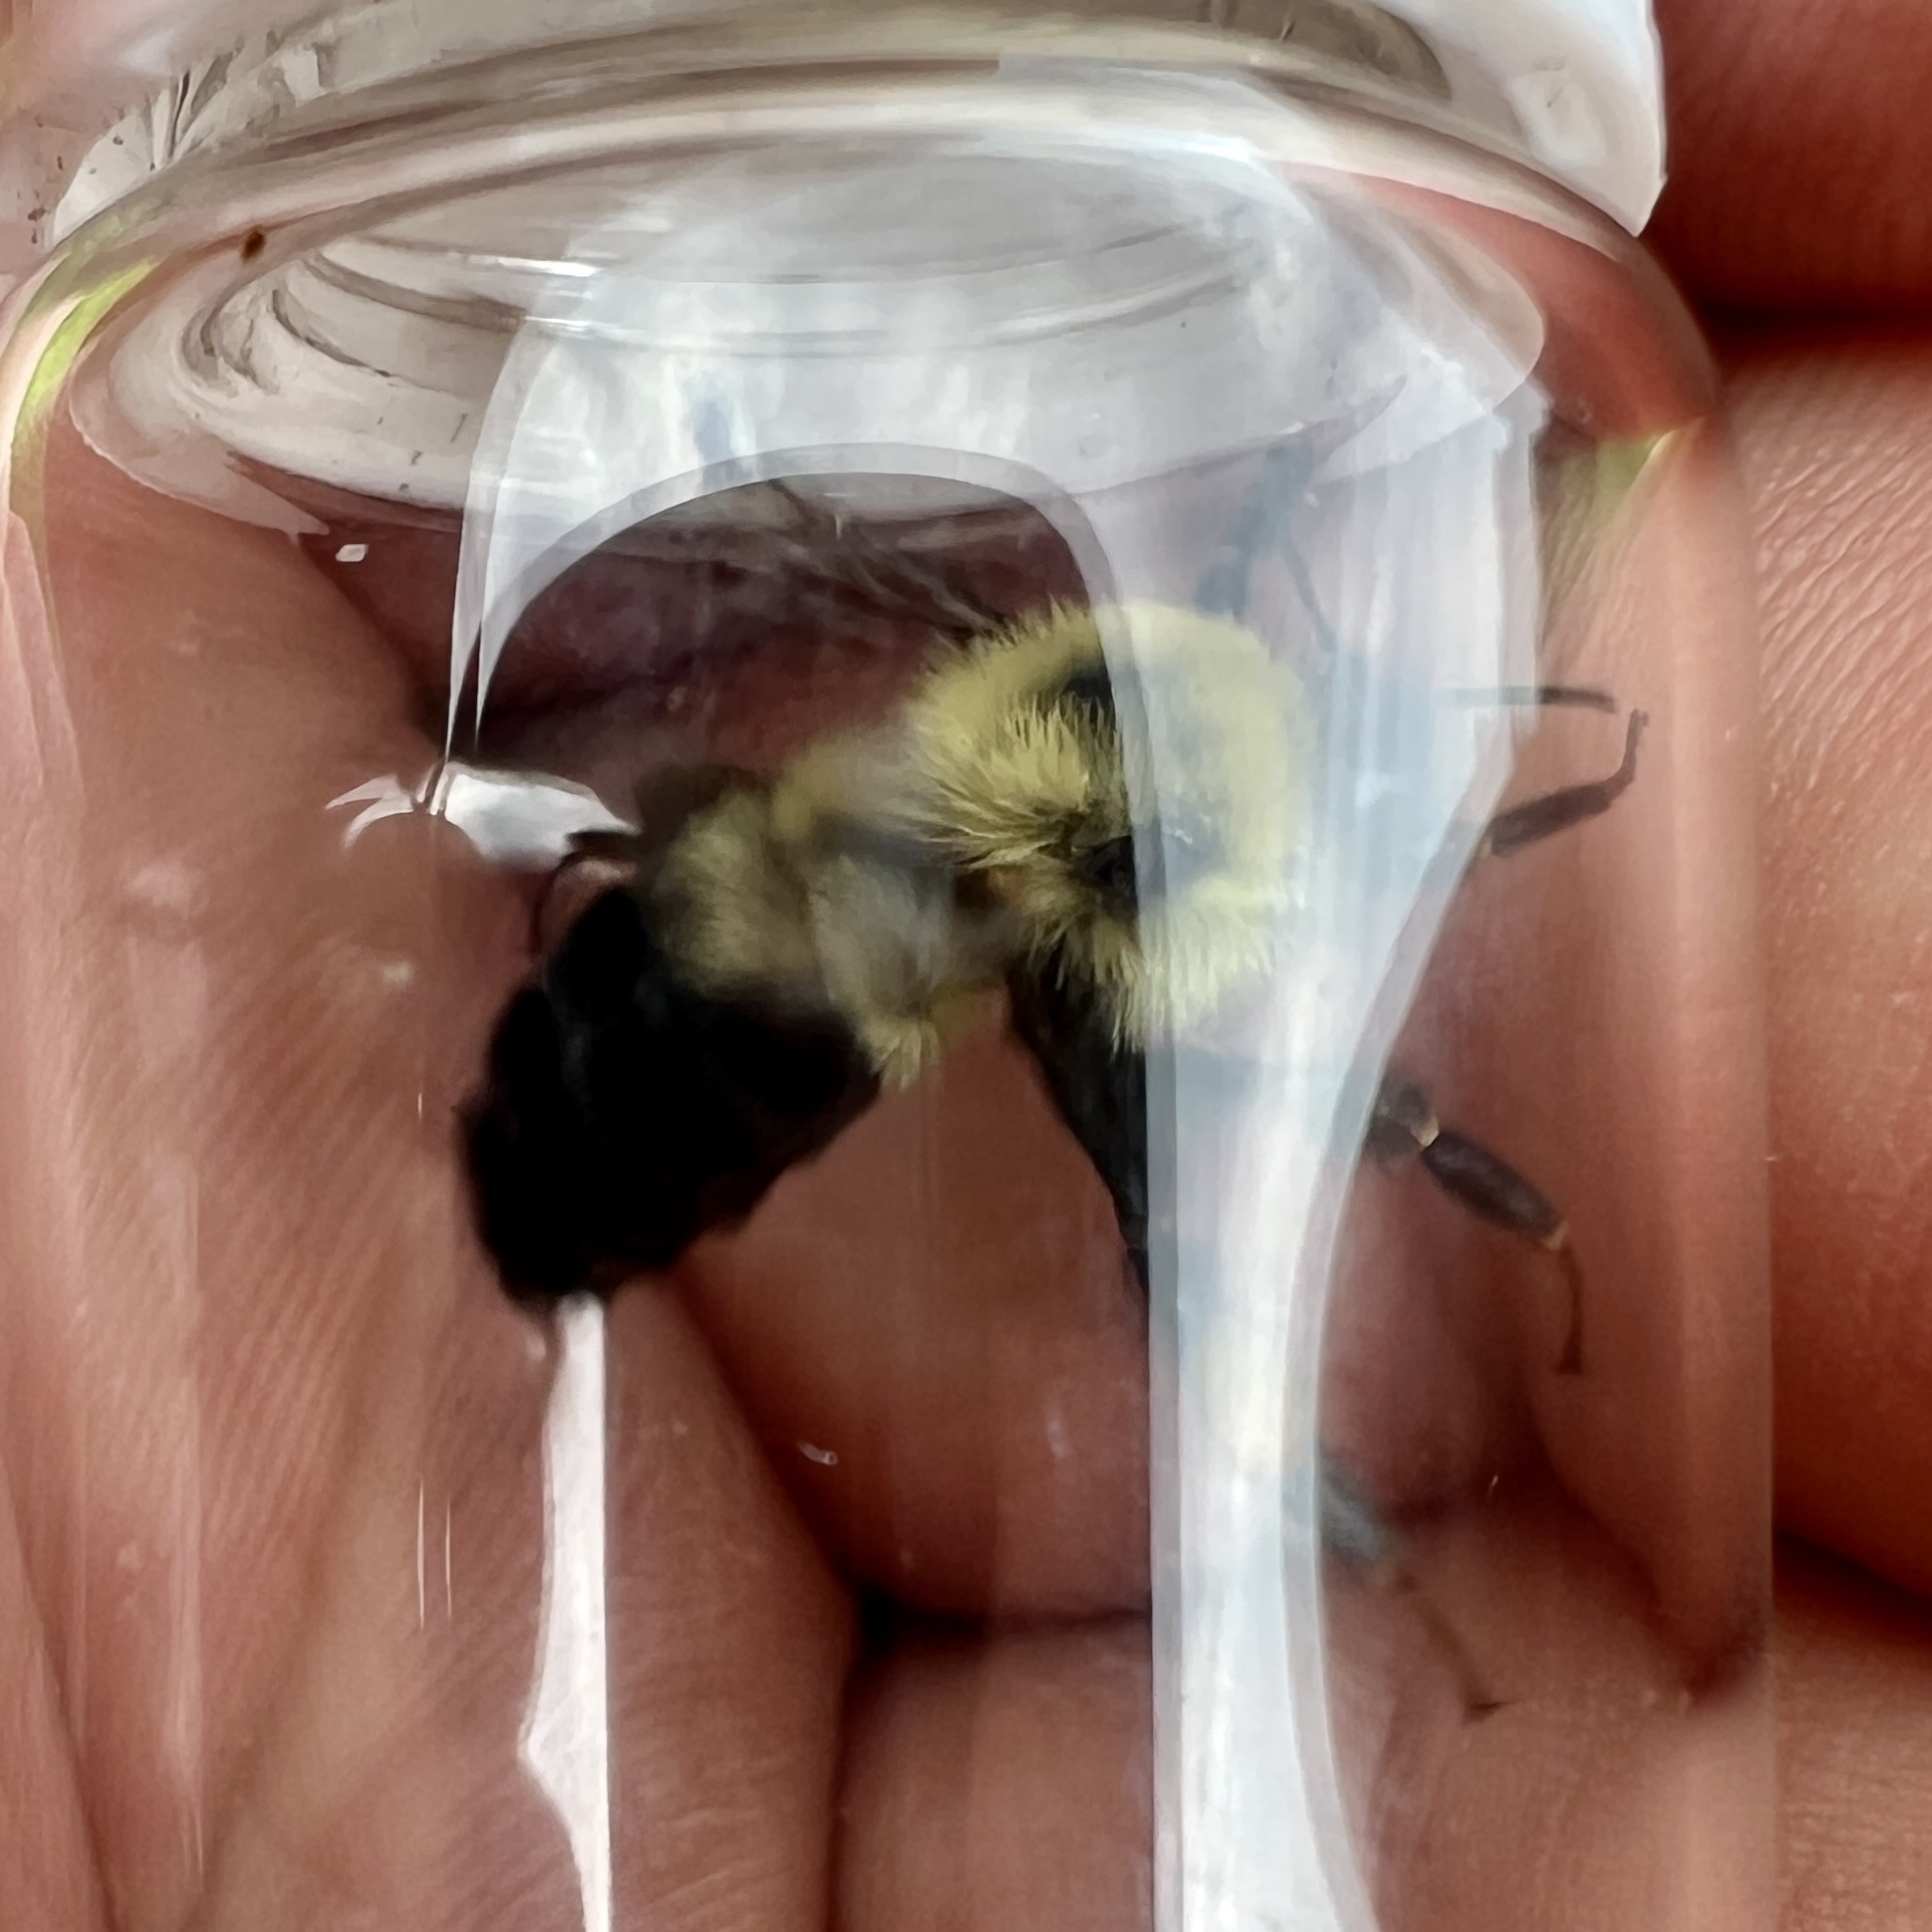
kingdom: Animalia
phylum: Arthropoda
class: Insecta
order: Hymenoptera
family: Apidae
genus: Bombus
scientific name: Bombus bimaculatus
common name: Two-spotted bumble bee
